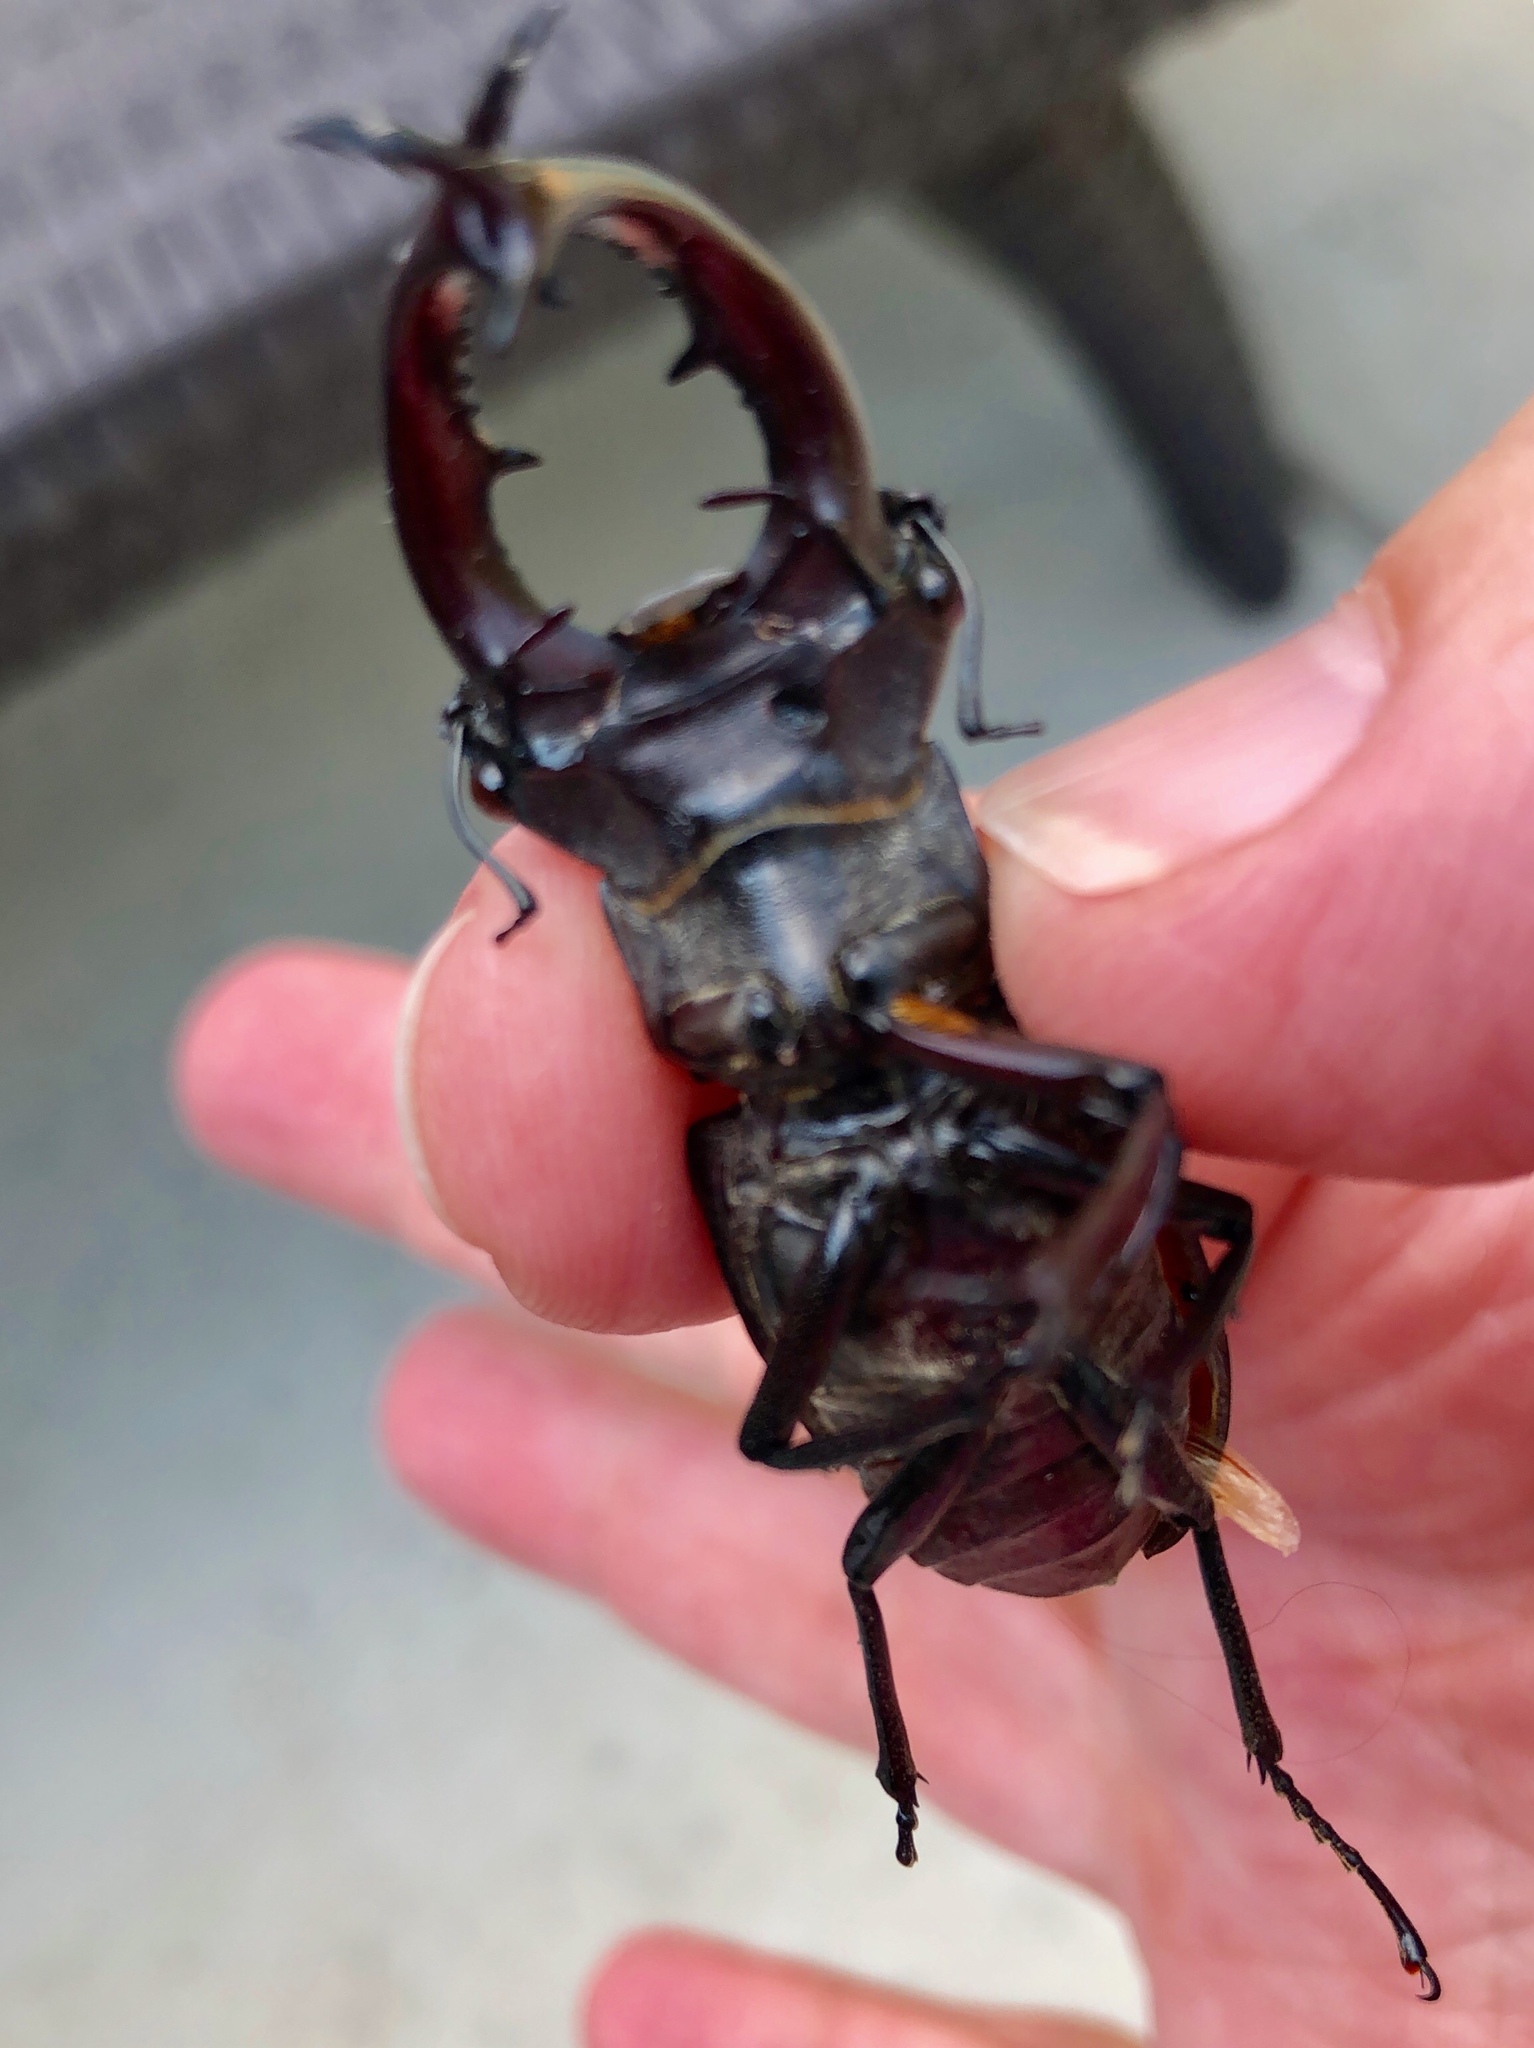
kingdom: Animalia
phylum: Arthropoda
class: Insecta
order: Coleoptera
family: Lucanidae
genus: Lucanus
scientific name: Lucanus elaphus
